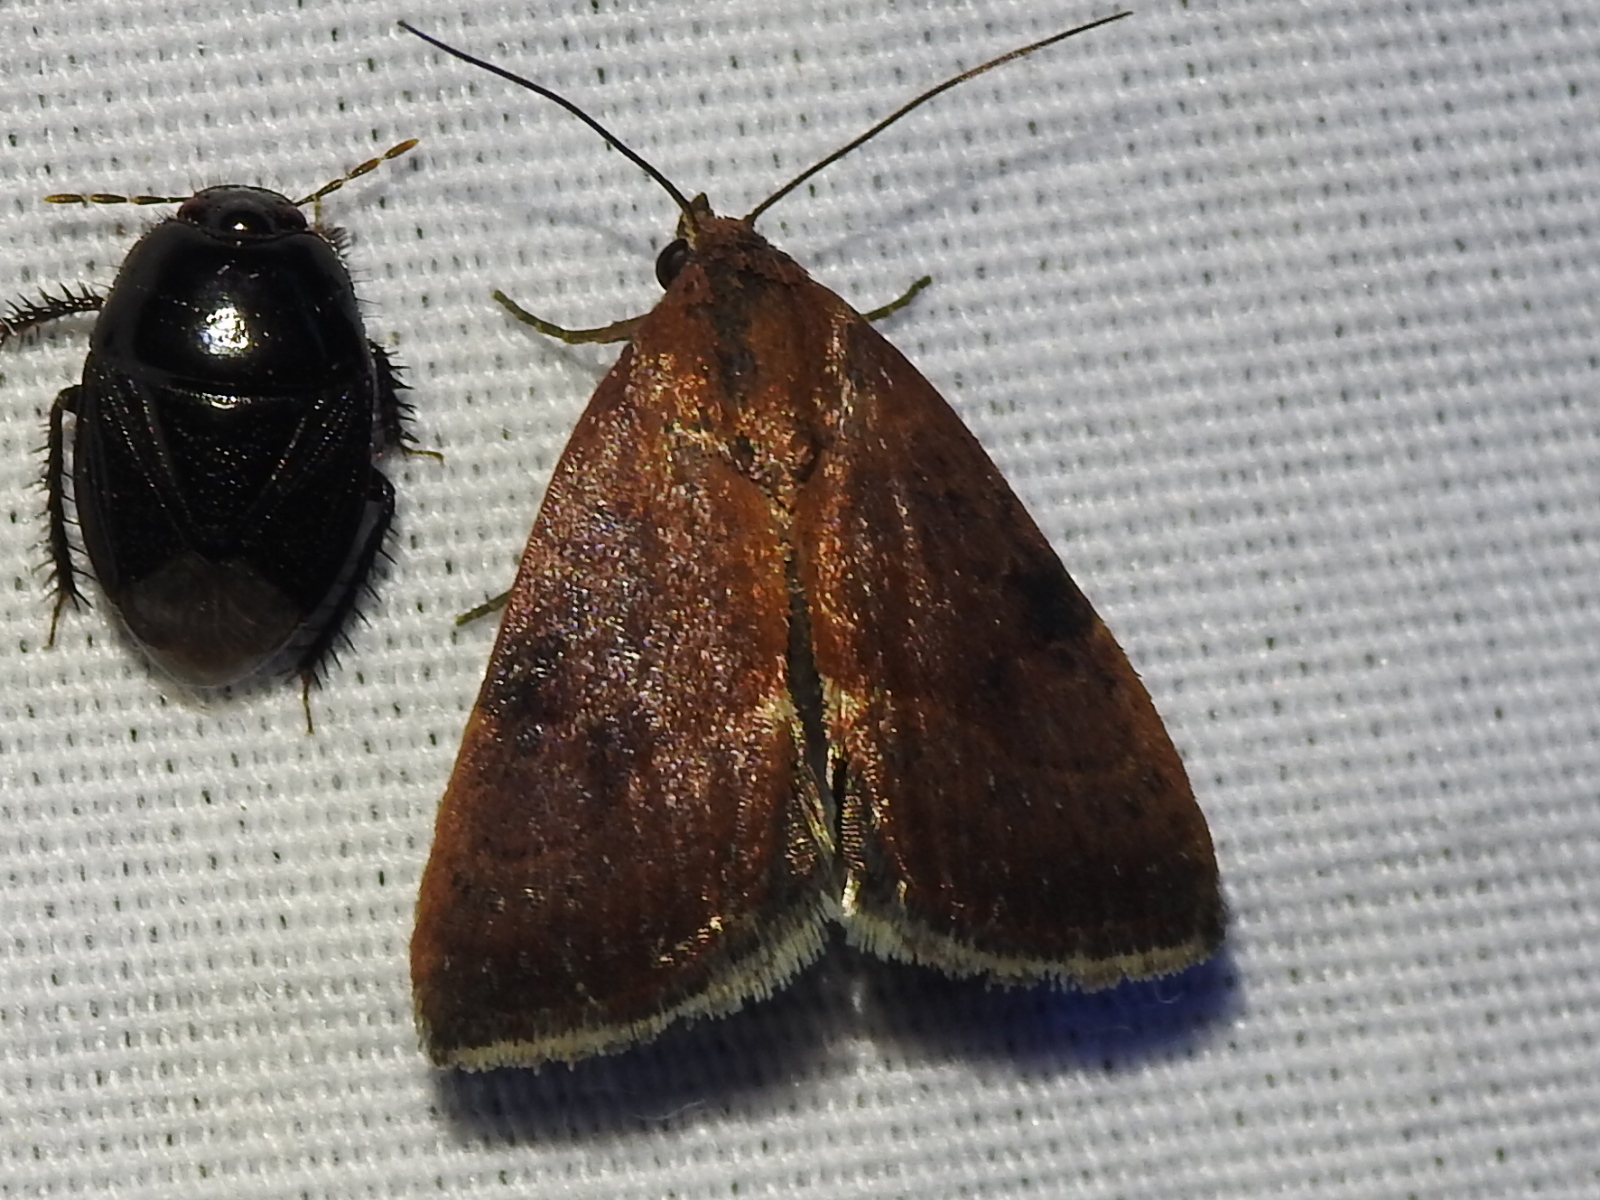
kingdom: Animalia
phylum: Arthropoda
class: Insecta
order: Lepidoptera
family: Noctuidae
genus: Galgula
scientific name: Galgula partita
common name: Wedgeling
